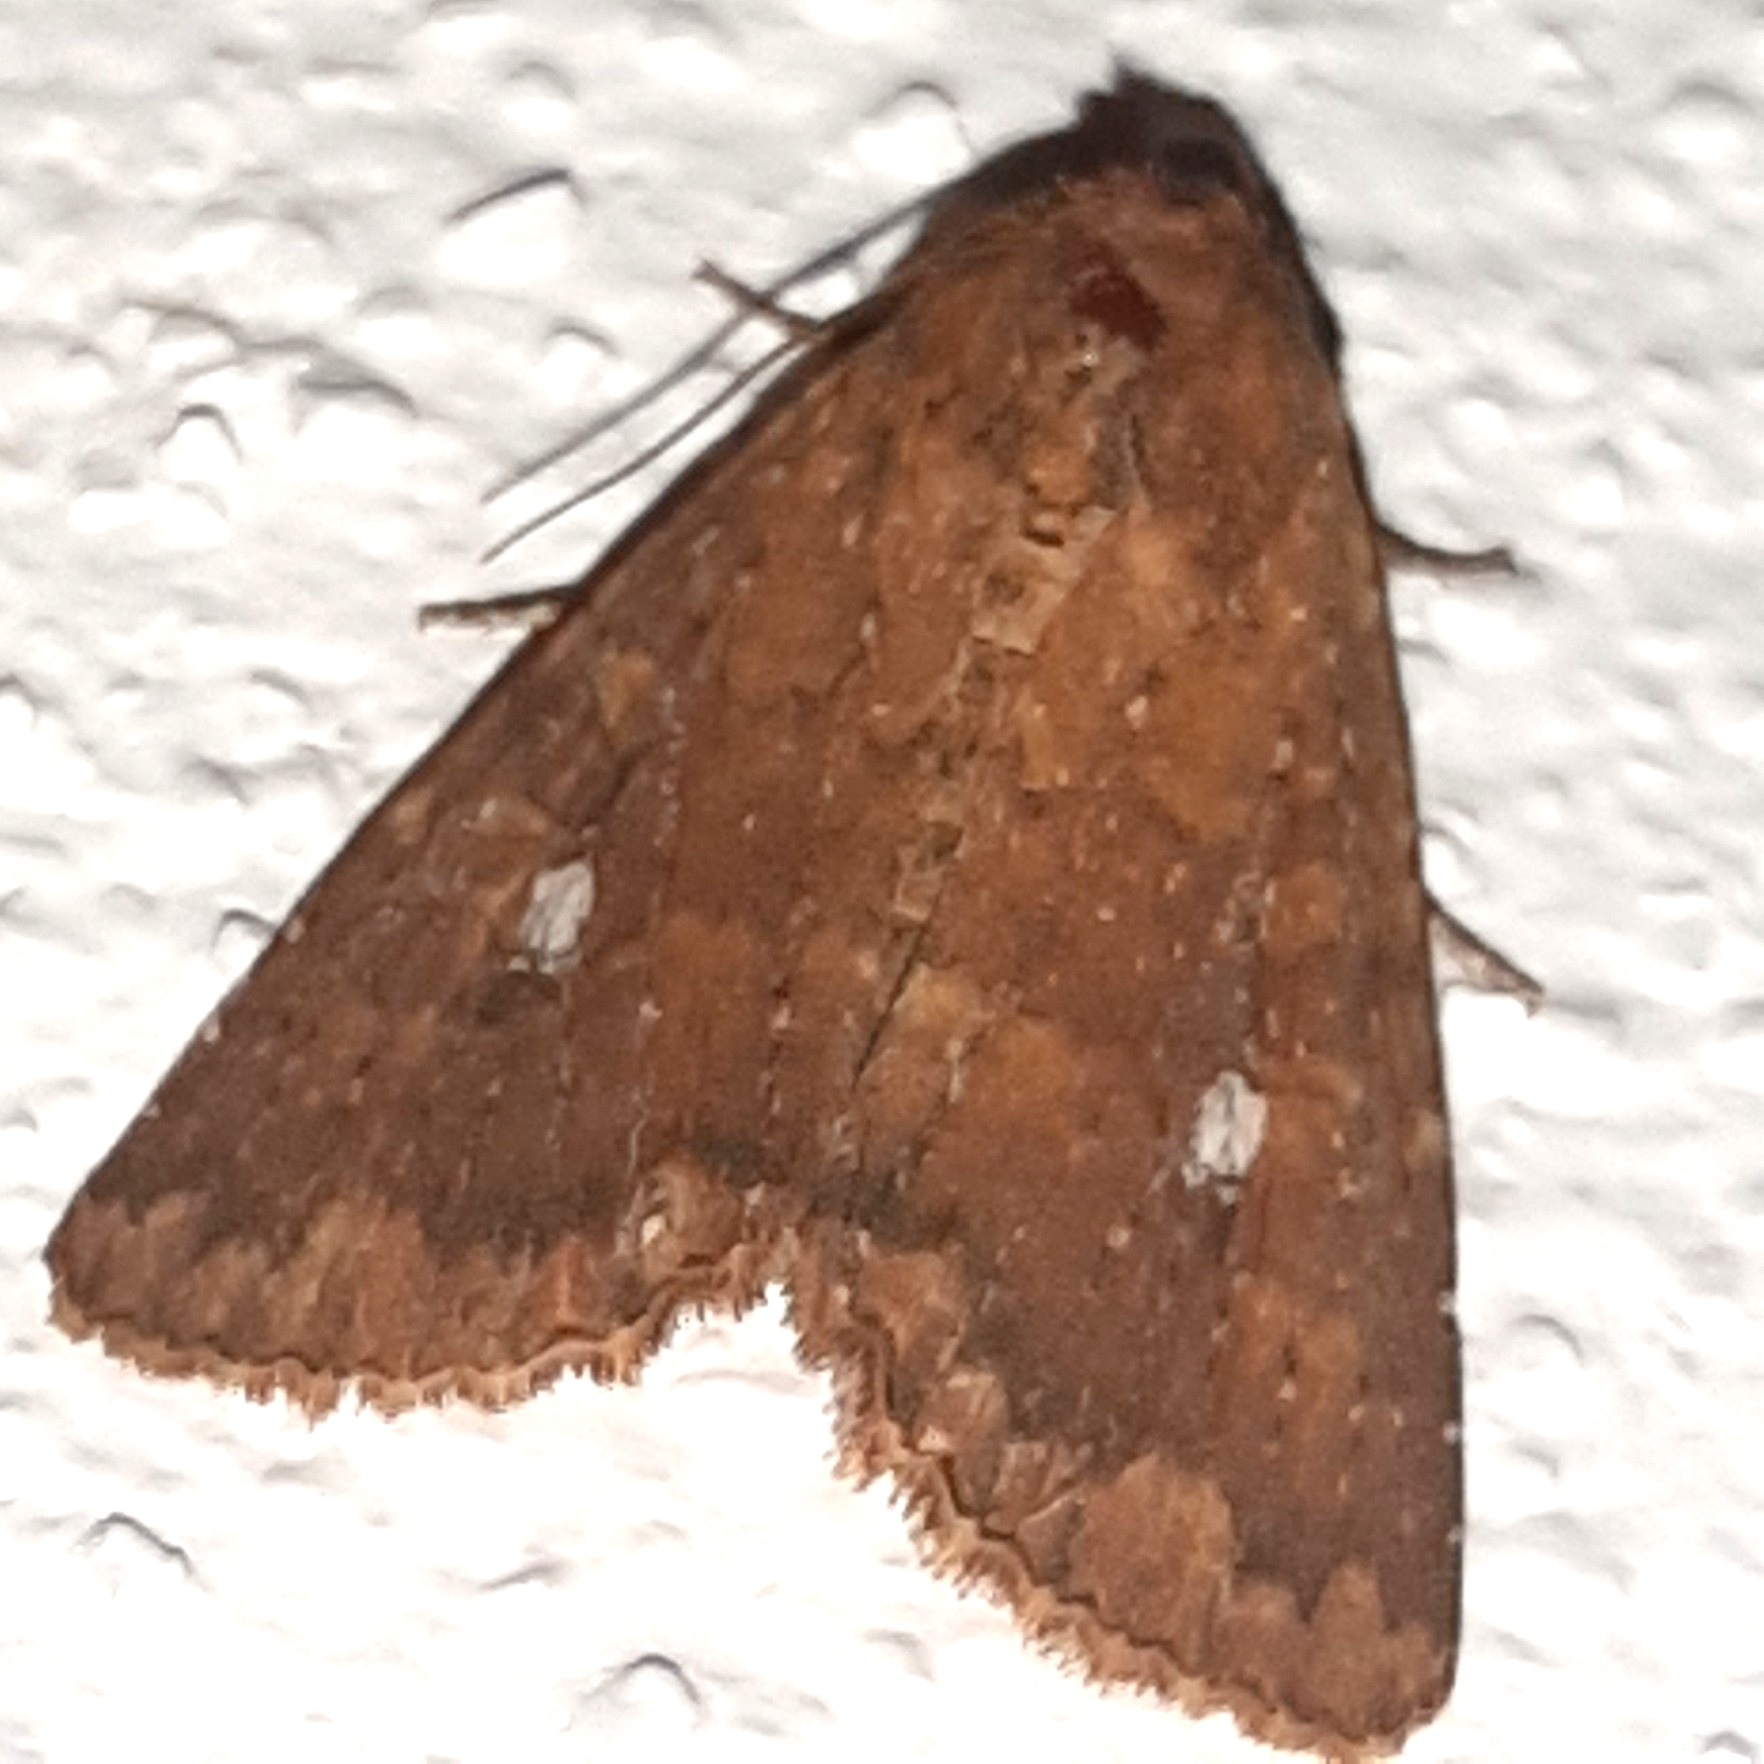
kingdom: Animalia
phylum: Arthropoda
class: Insecta
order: Lepidoptera
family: Noctuidae
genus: Condica
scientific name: Condica mobilis
